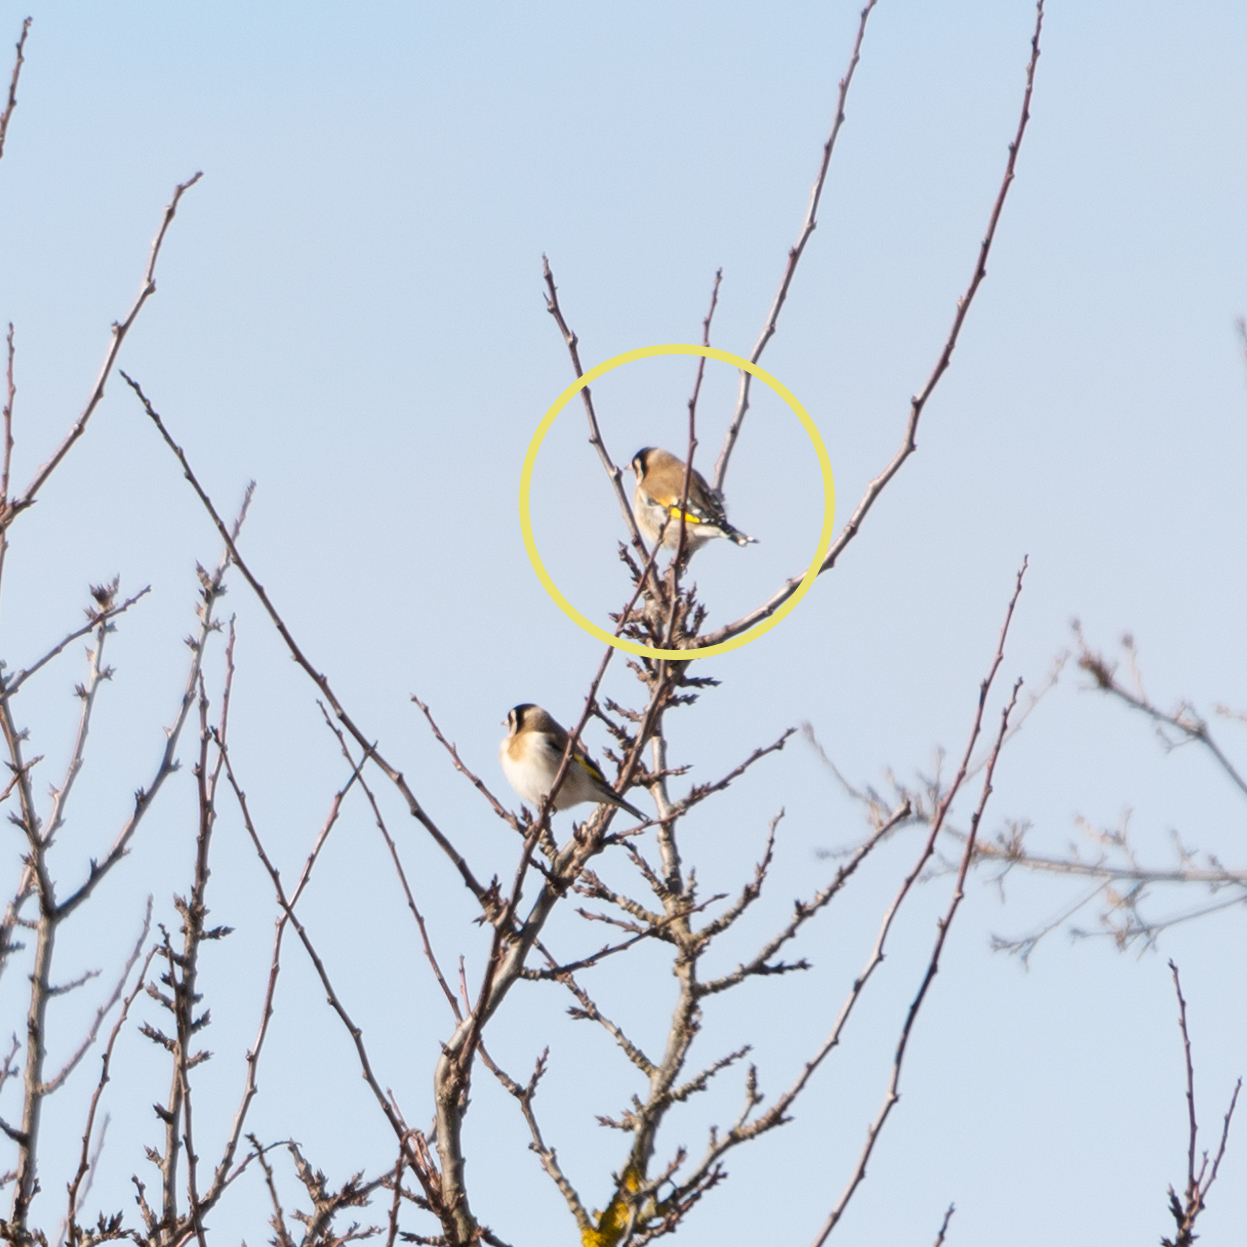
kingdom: Animalia
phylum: Chordata
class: Aves
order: Passeriformes
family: Fringillidae
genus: Carduelis
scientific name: Carduelis carduelis
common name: European goldfinch
